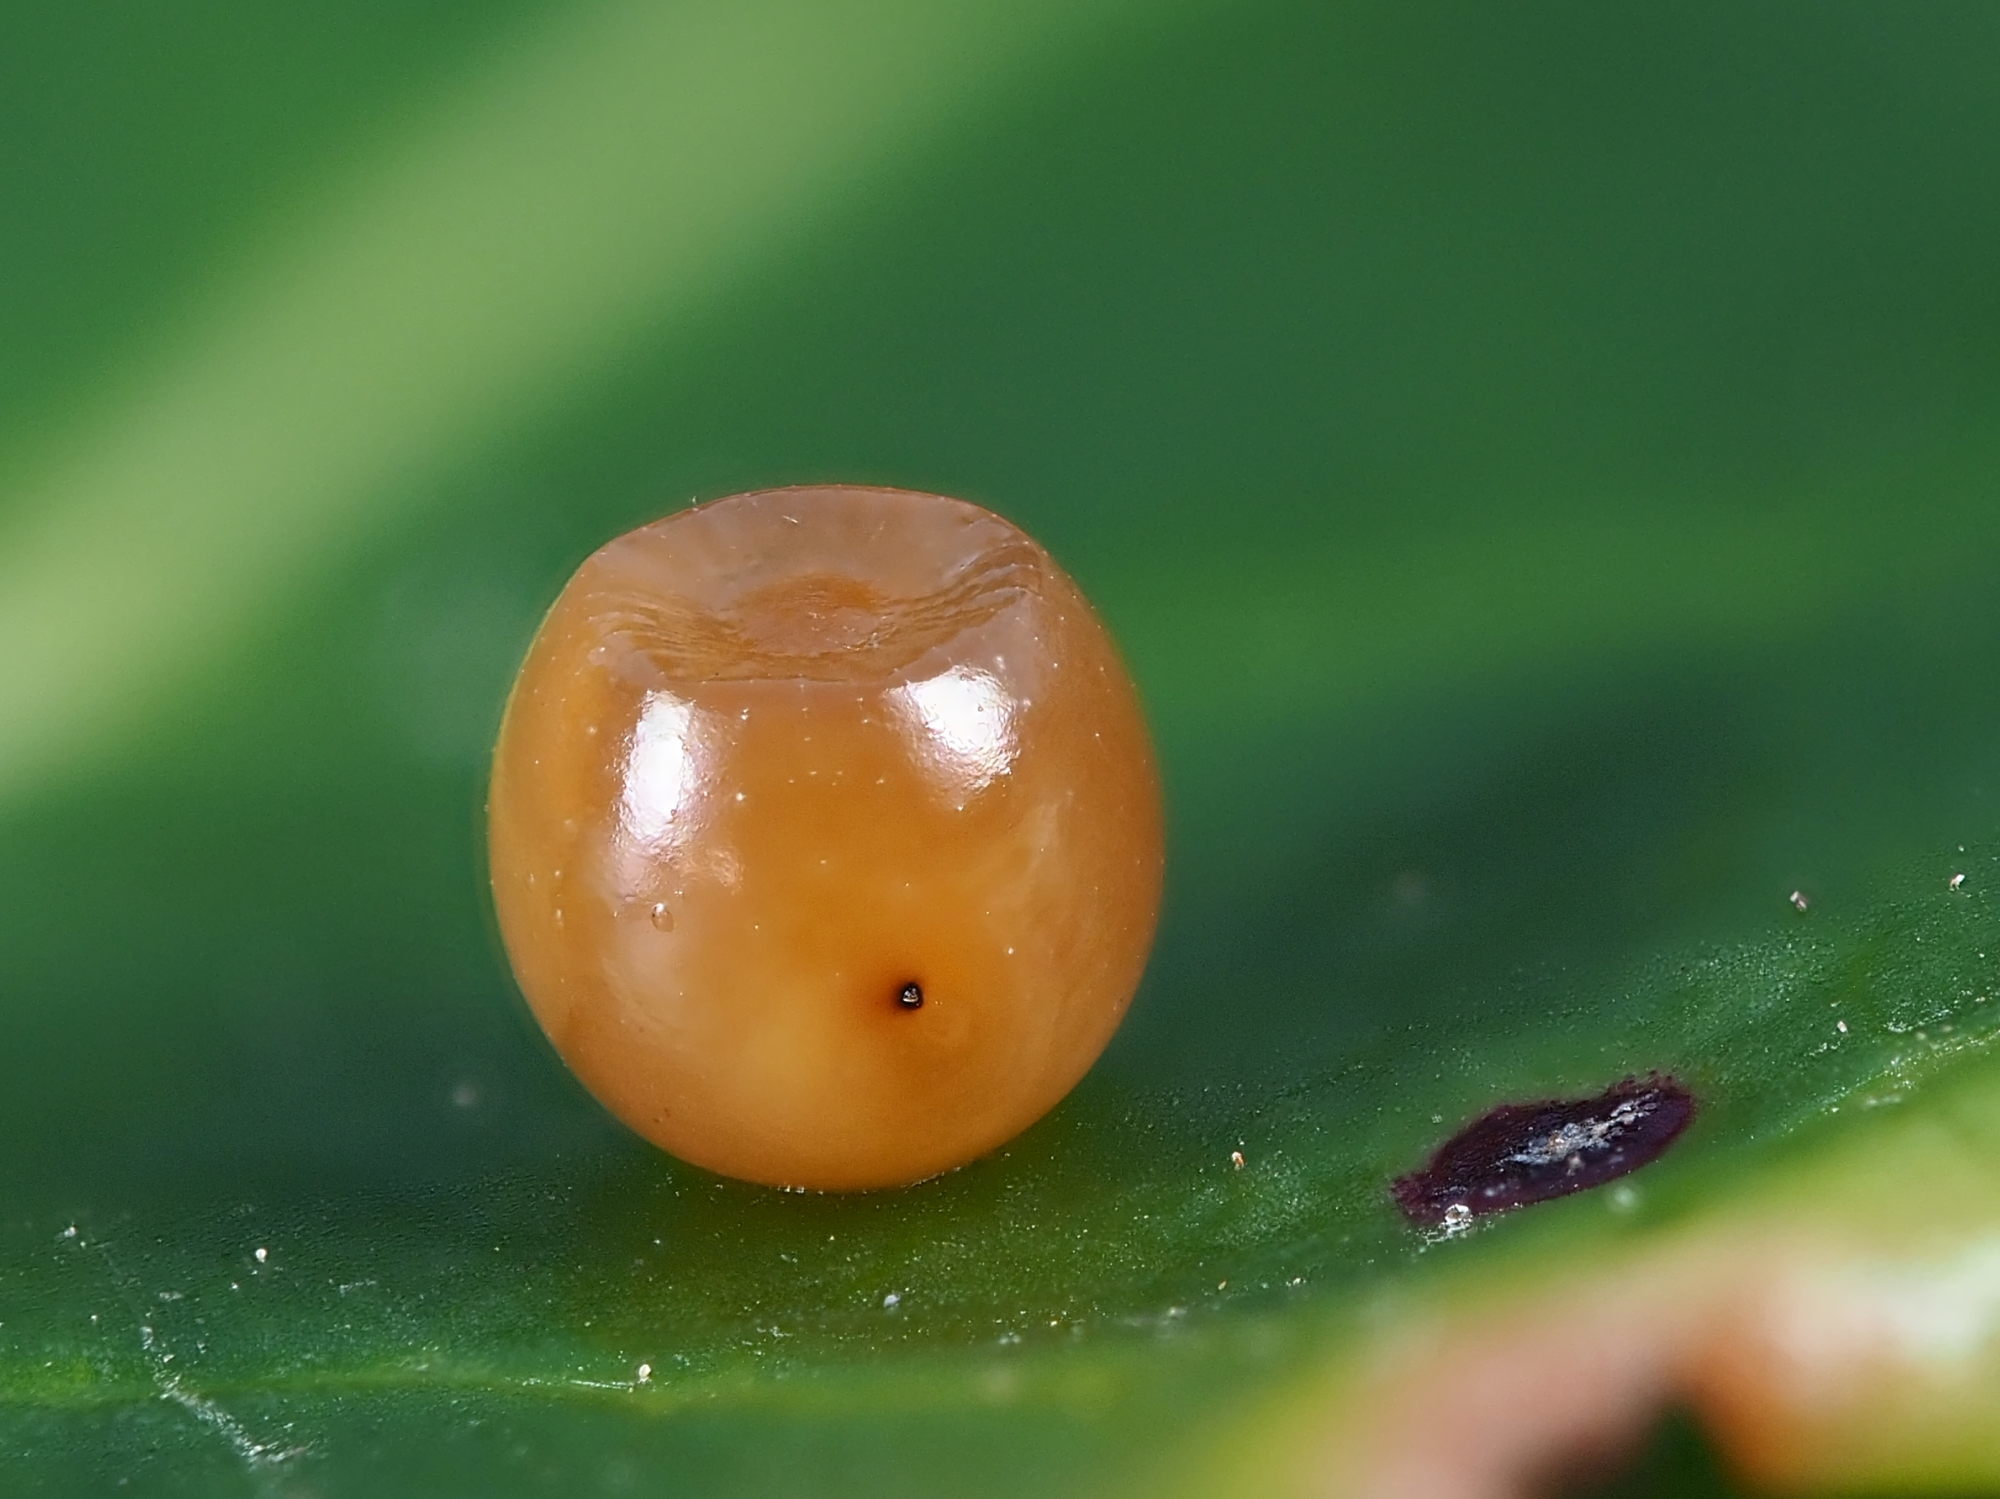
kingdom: Animalia
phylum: Arthropoda
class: Insecta
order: Lepidoptera
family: Nymphalidae
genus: Charaxes
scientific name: Charaxes jasius
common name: Two tailed pasha
